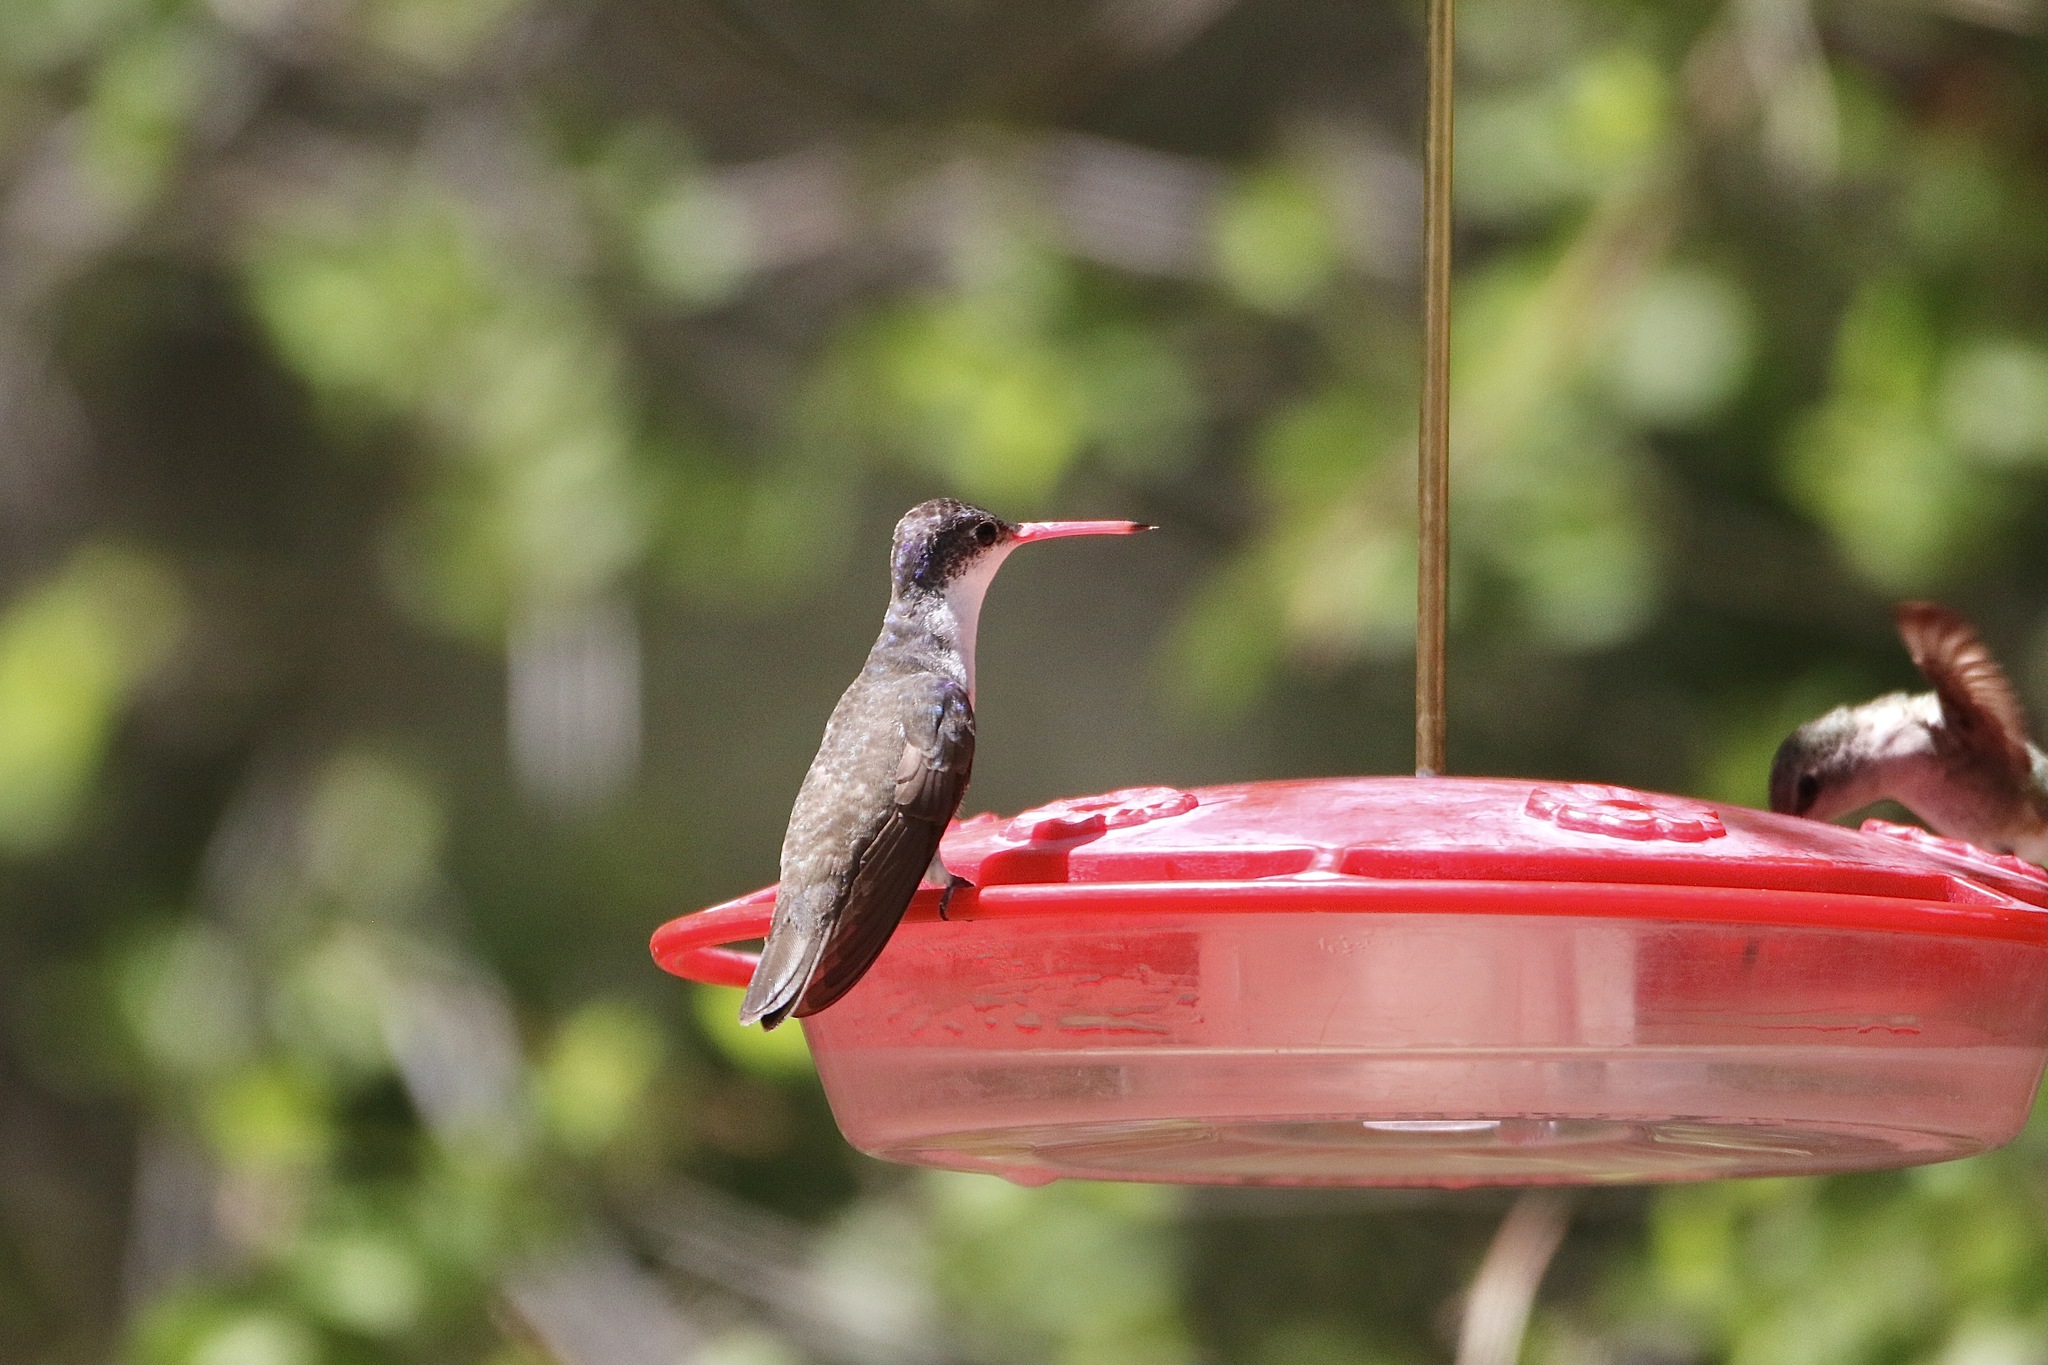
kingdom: Animalia
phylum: Chordata
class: Aves
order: Apodiformes
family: Trochilidae
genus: Leucolia
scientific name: Leucolia violiceps
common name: Violet-crowned hummingbird
